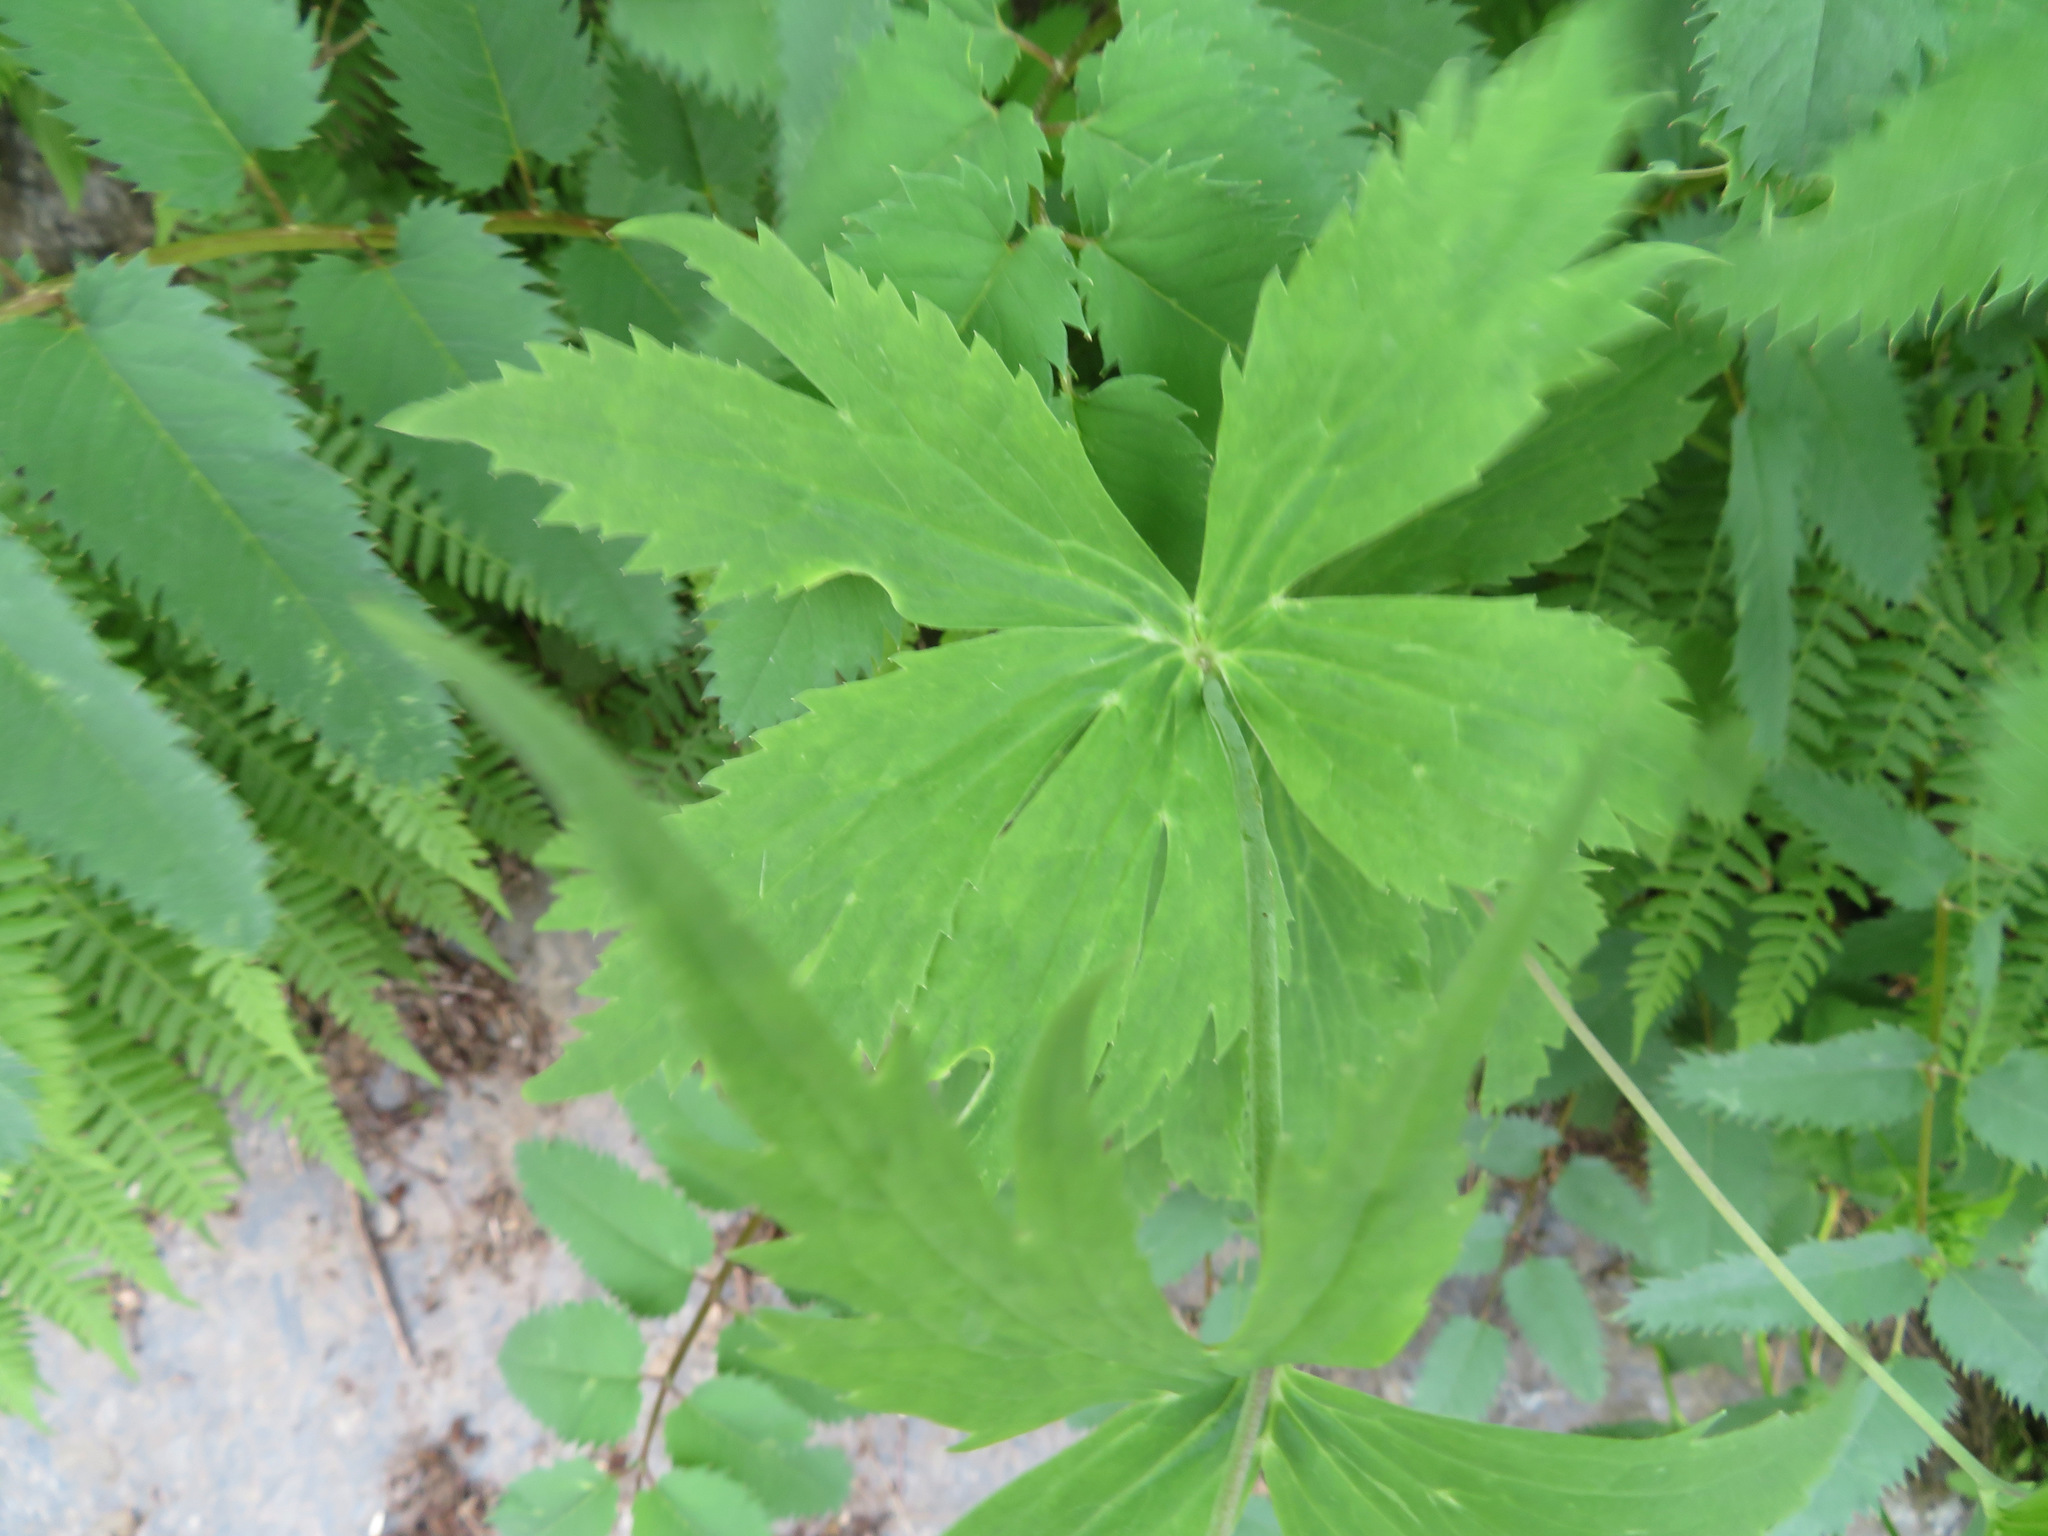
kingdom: Plantae
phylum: Tracheophyta
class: Magnoliopsida
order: Ranunculales
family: Ranunculaceae
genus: Ranunculus
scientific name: Ranunculus platanifolius
